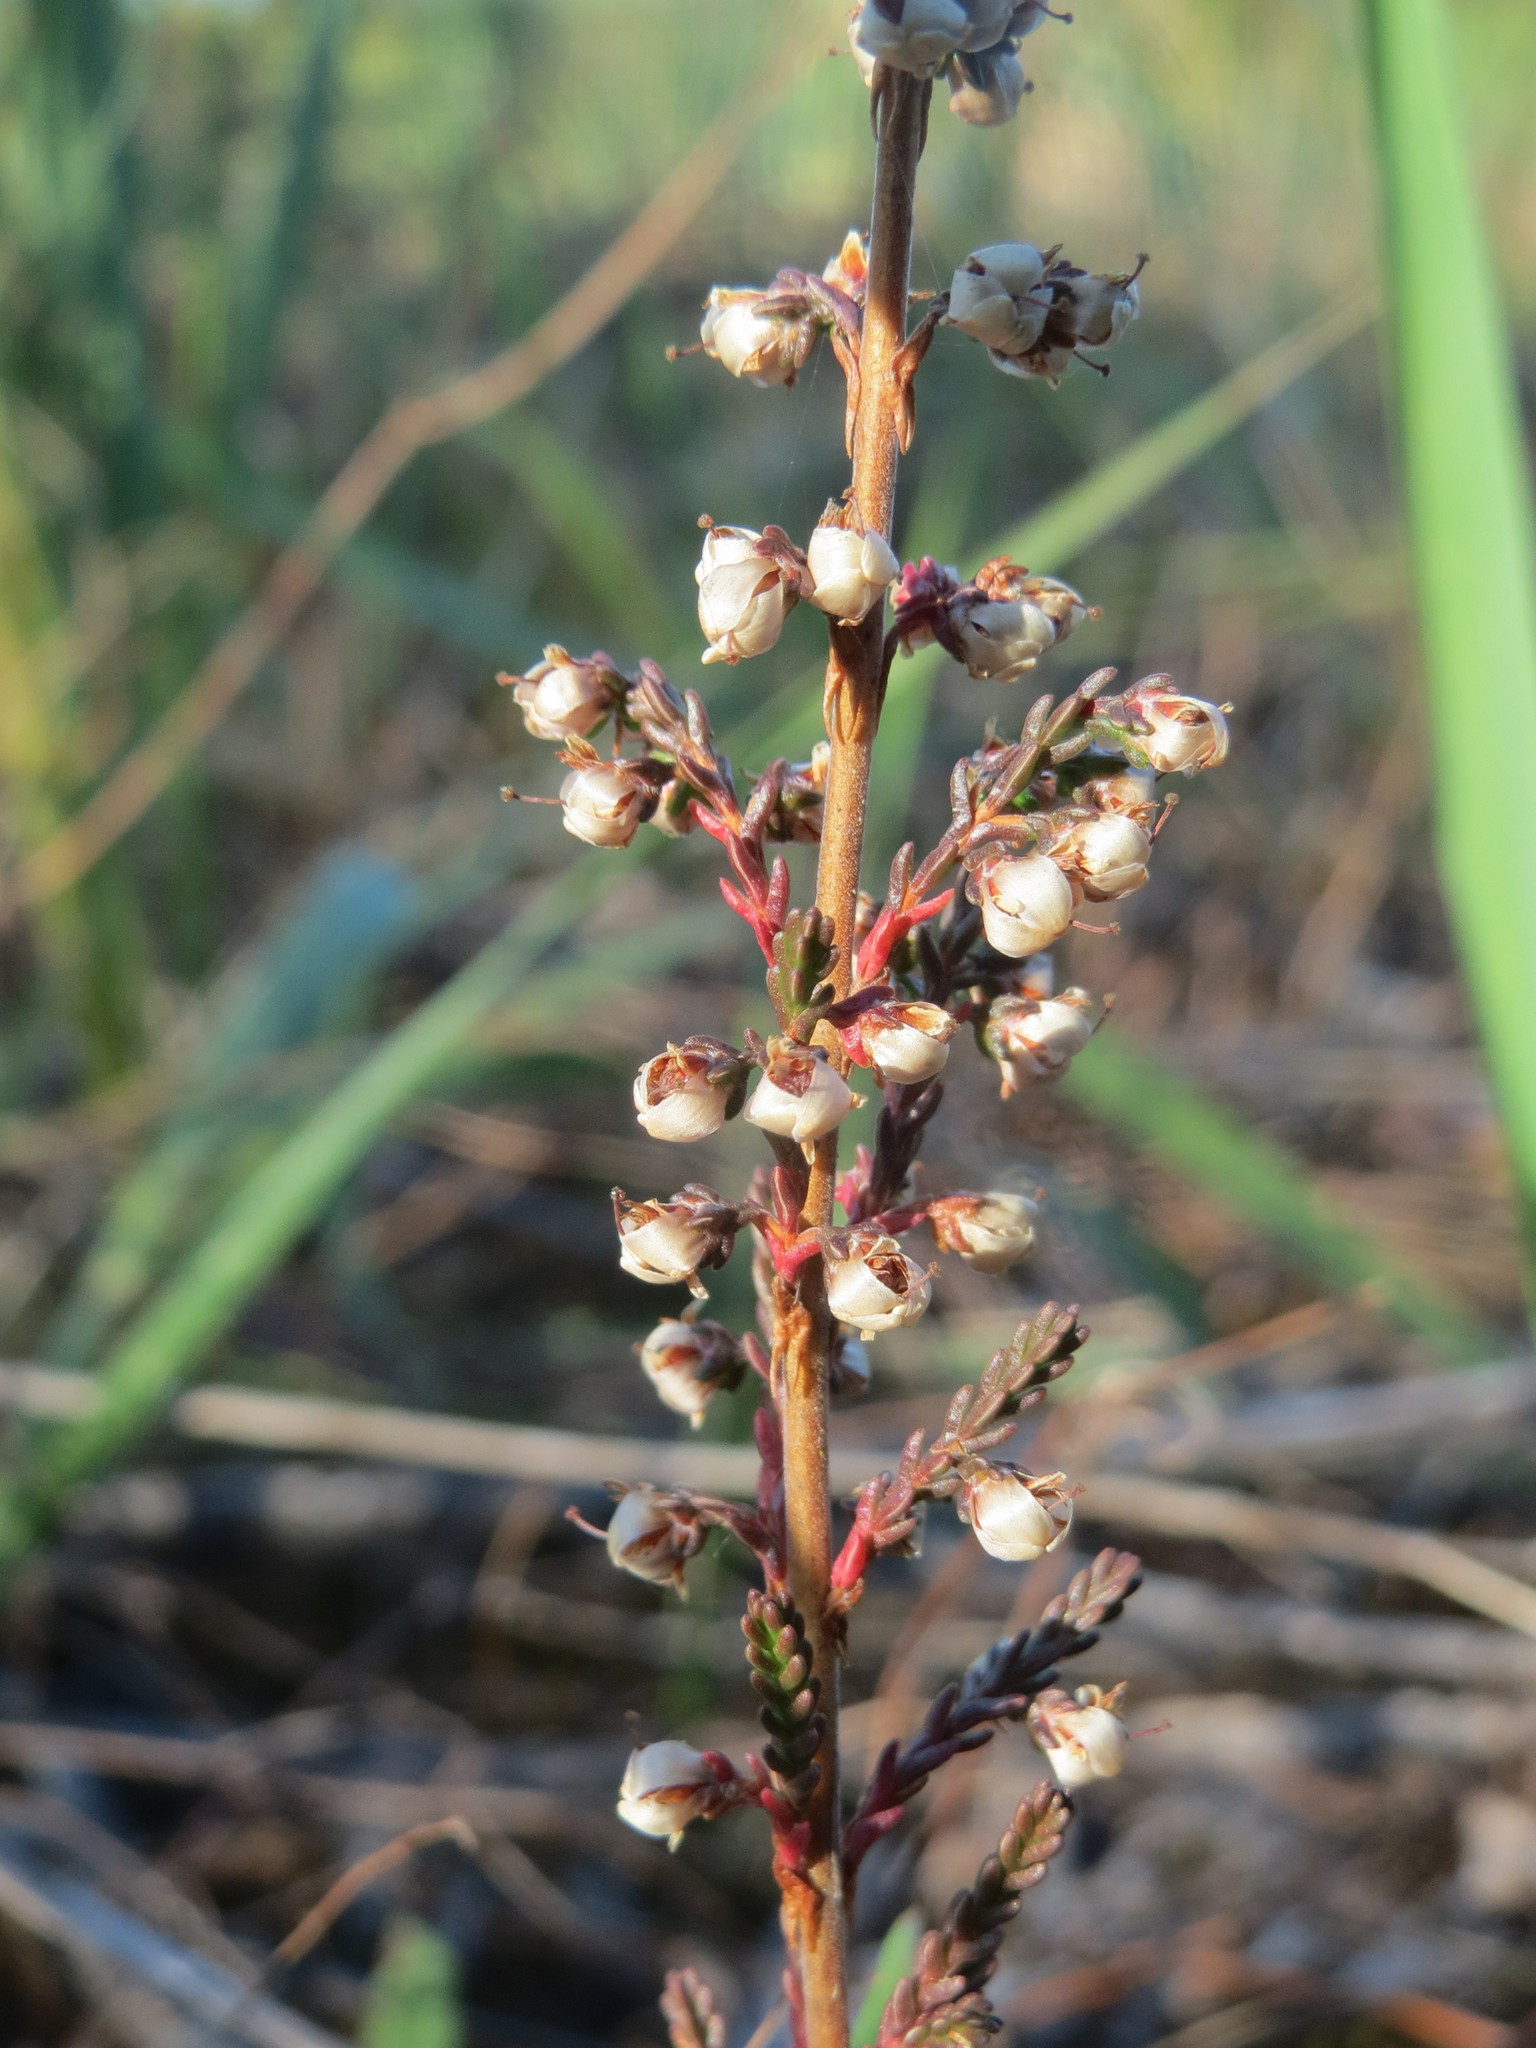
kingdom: Plantae
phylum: Tracheophyta
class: Magnoliopsida
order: Ericales
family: Ericaceae
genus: Calluna
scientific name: Calluna vulgaris
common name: Heather
